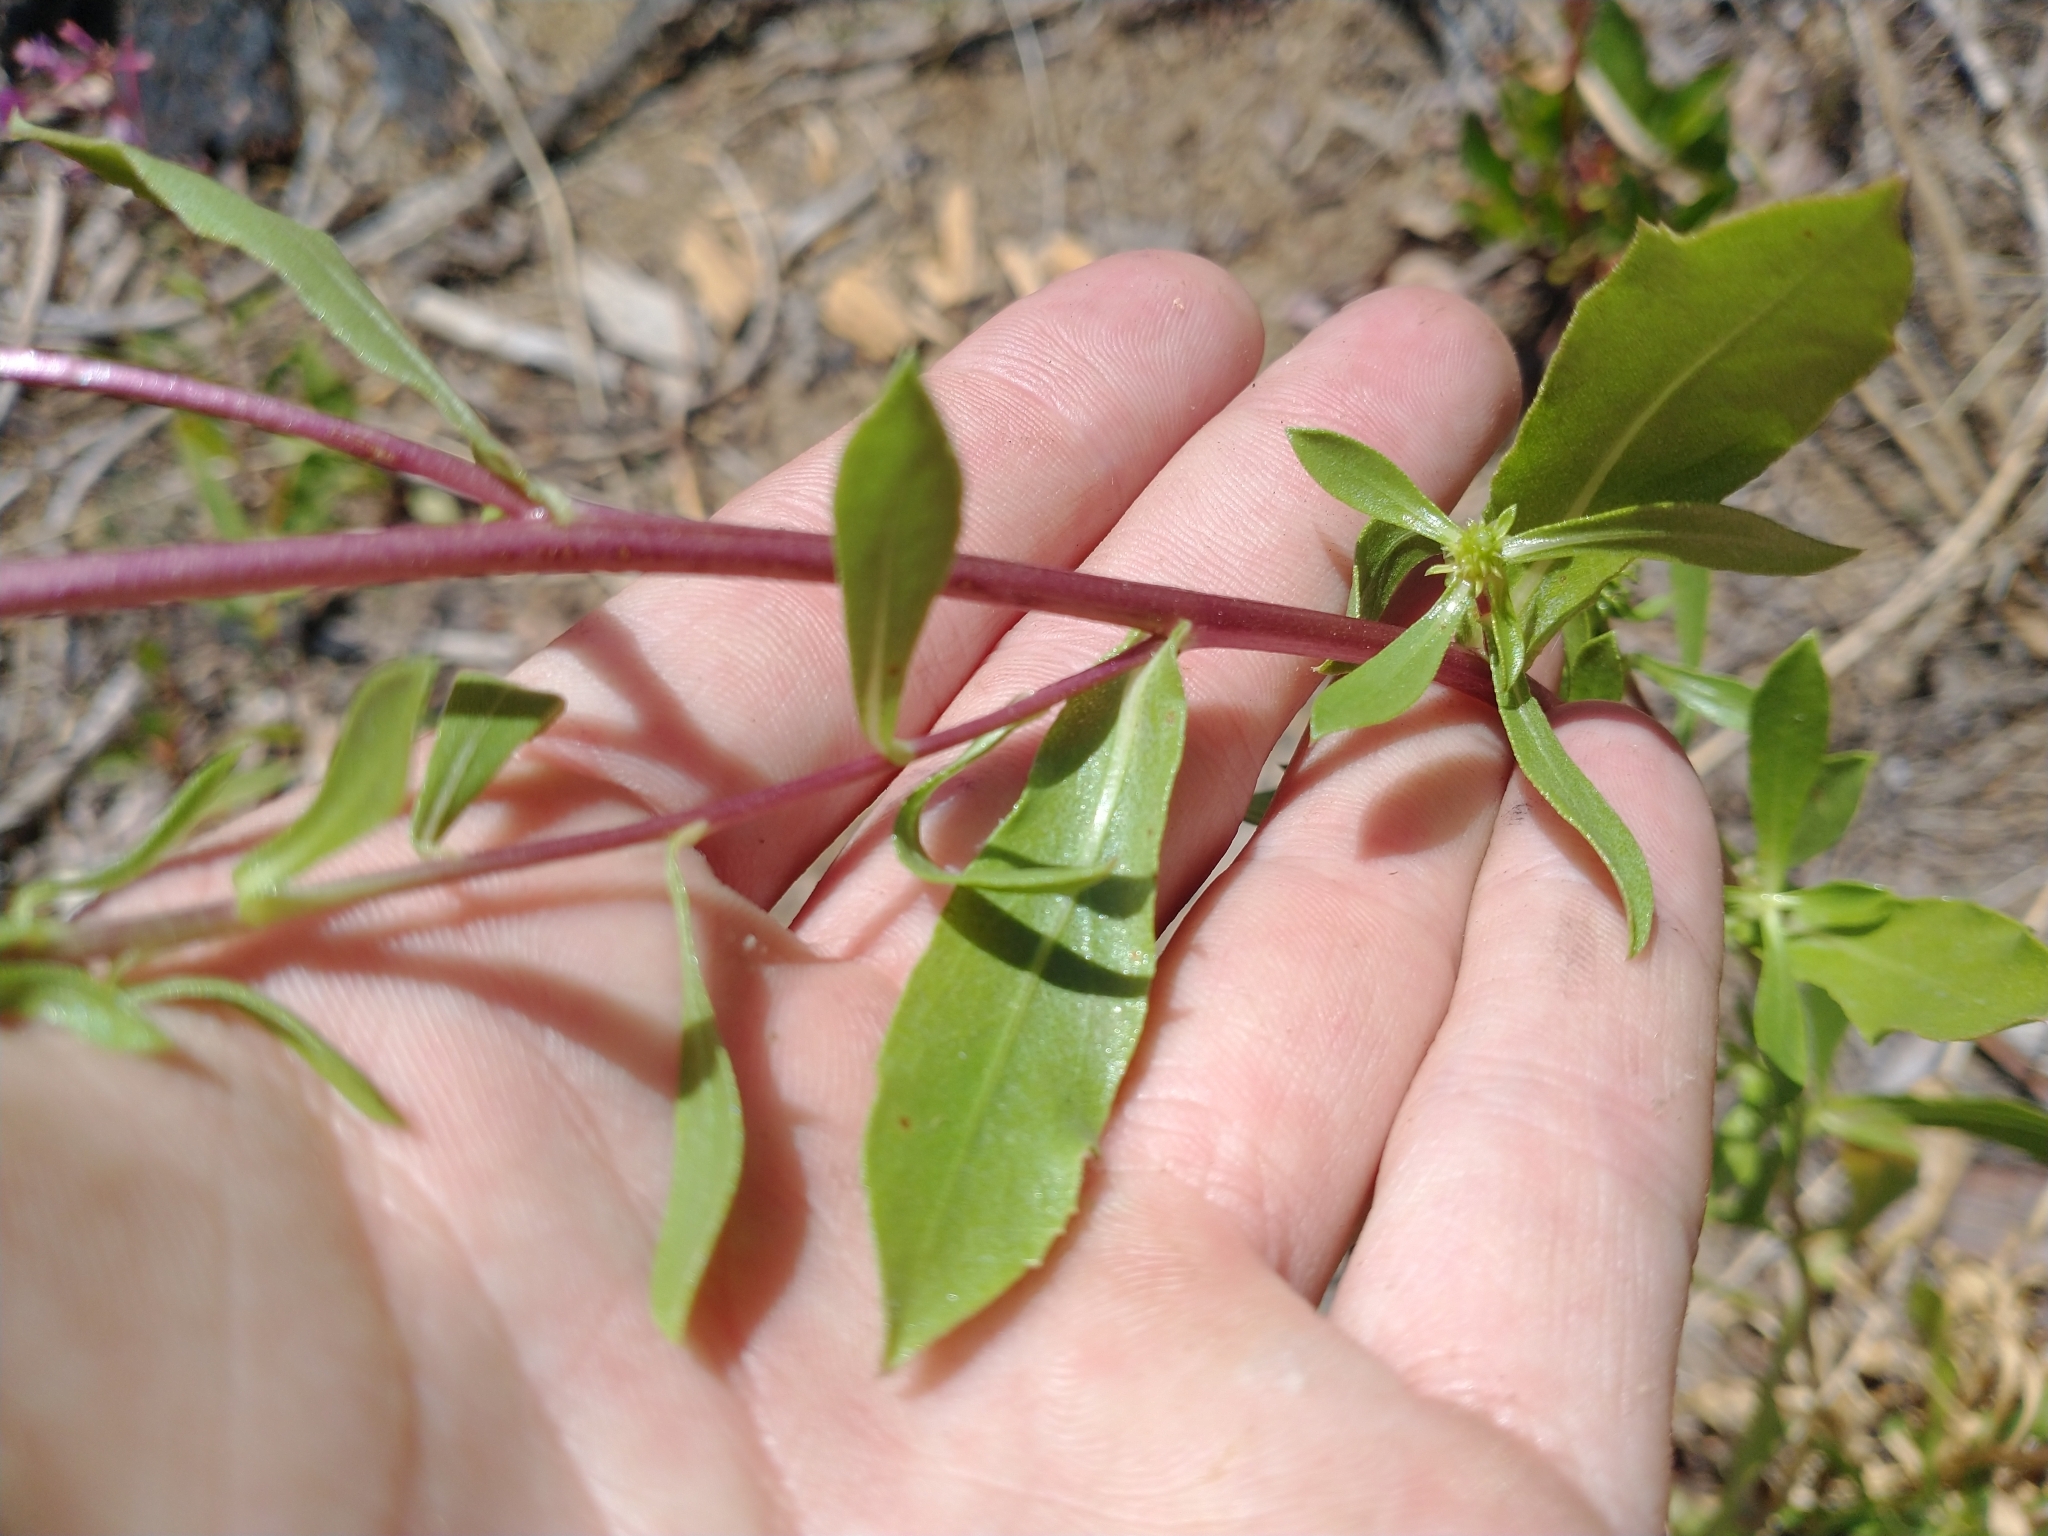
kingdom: Plantae
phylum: Tracheophyta
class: Magnoliopsida
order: Asterales
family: Asteraceae
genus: Grindelia
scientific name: Grindelia squarrosa
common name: Curly-cup gumweed
